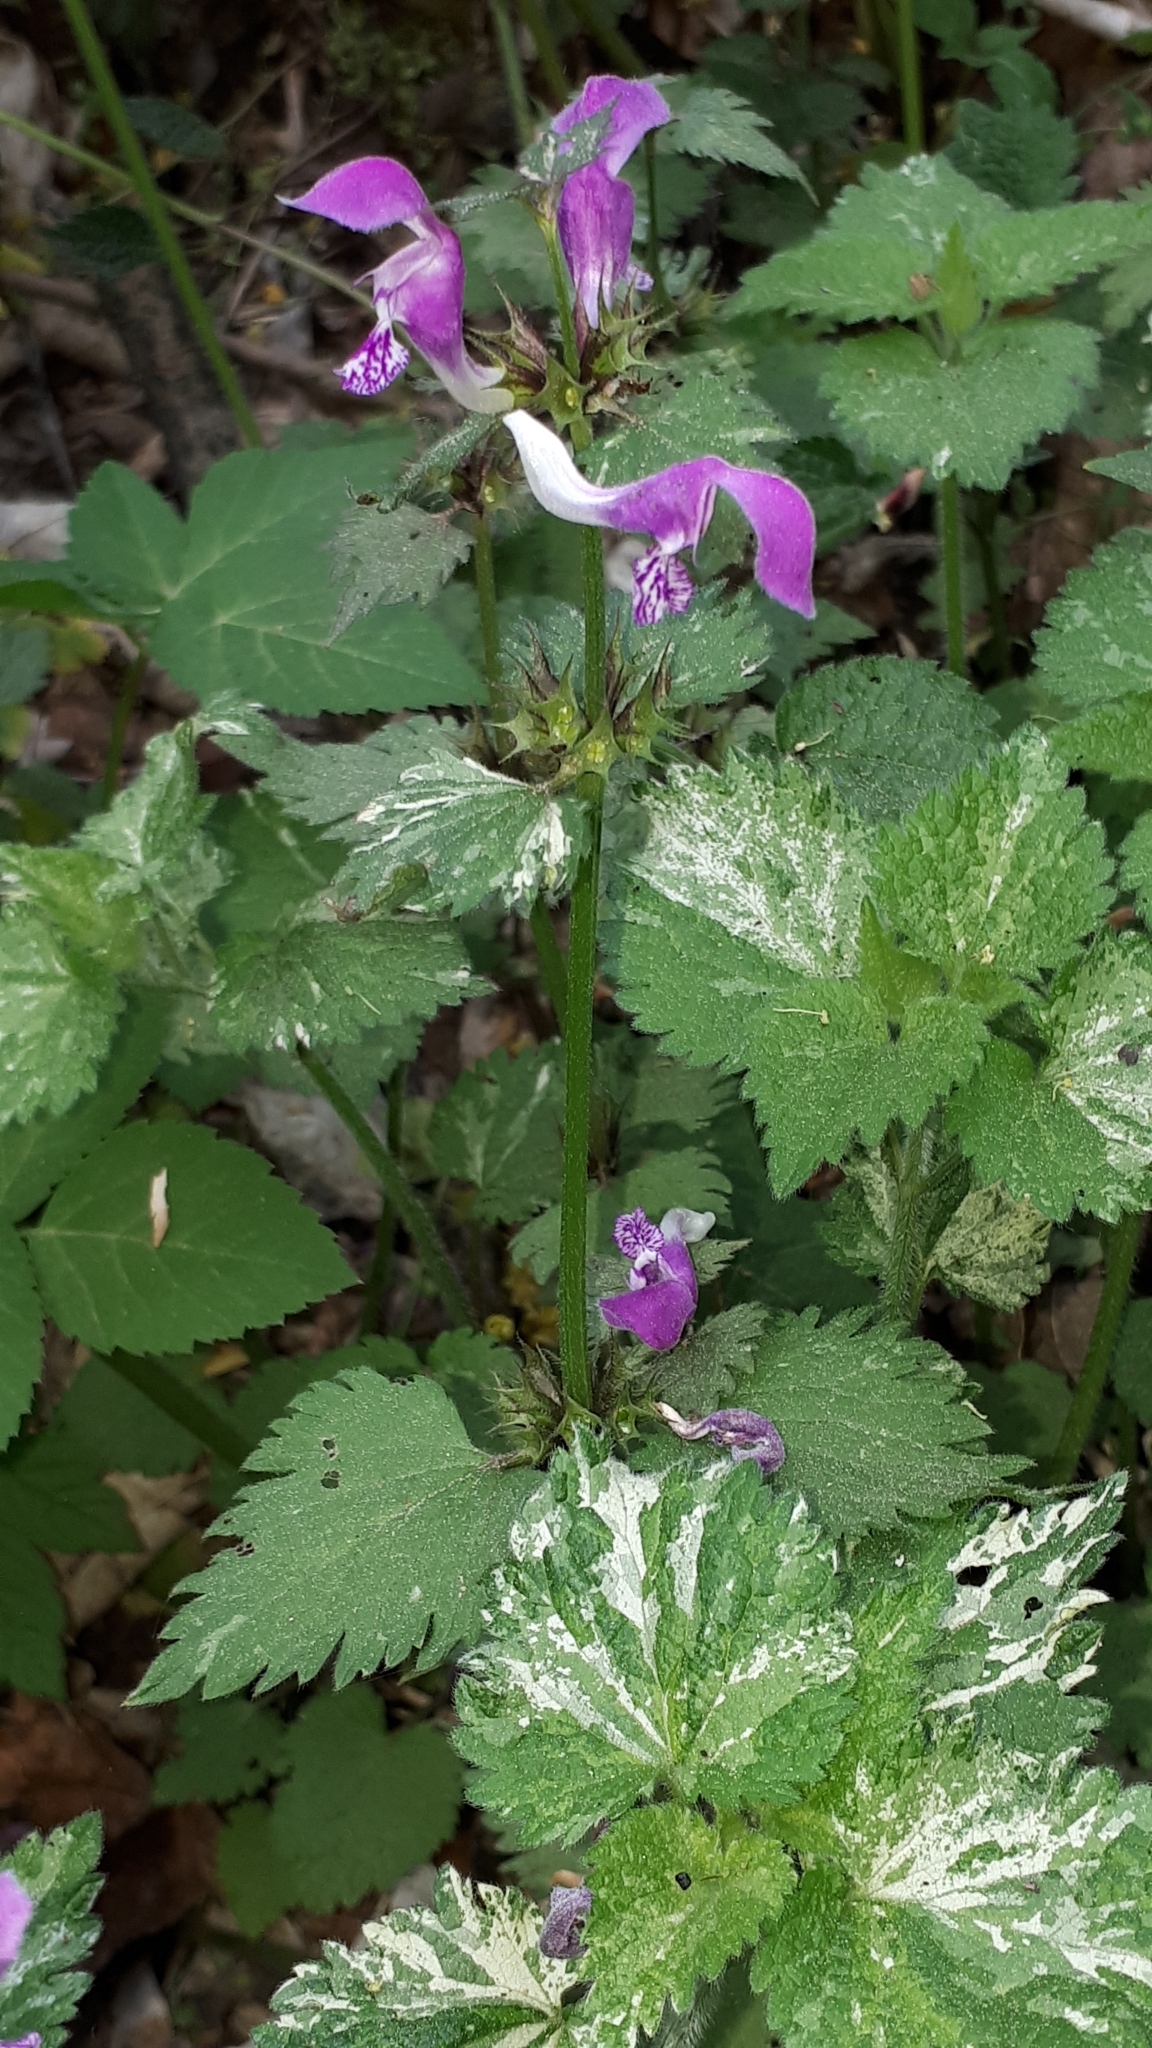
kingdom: Plantae
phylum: Tracheophyta
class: Magnoliopsida
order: Lamiales
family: Lamiaceae
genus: Lamium
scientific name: Lamium maculatum
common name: Spotted dead-nettle
